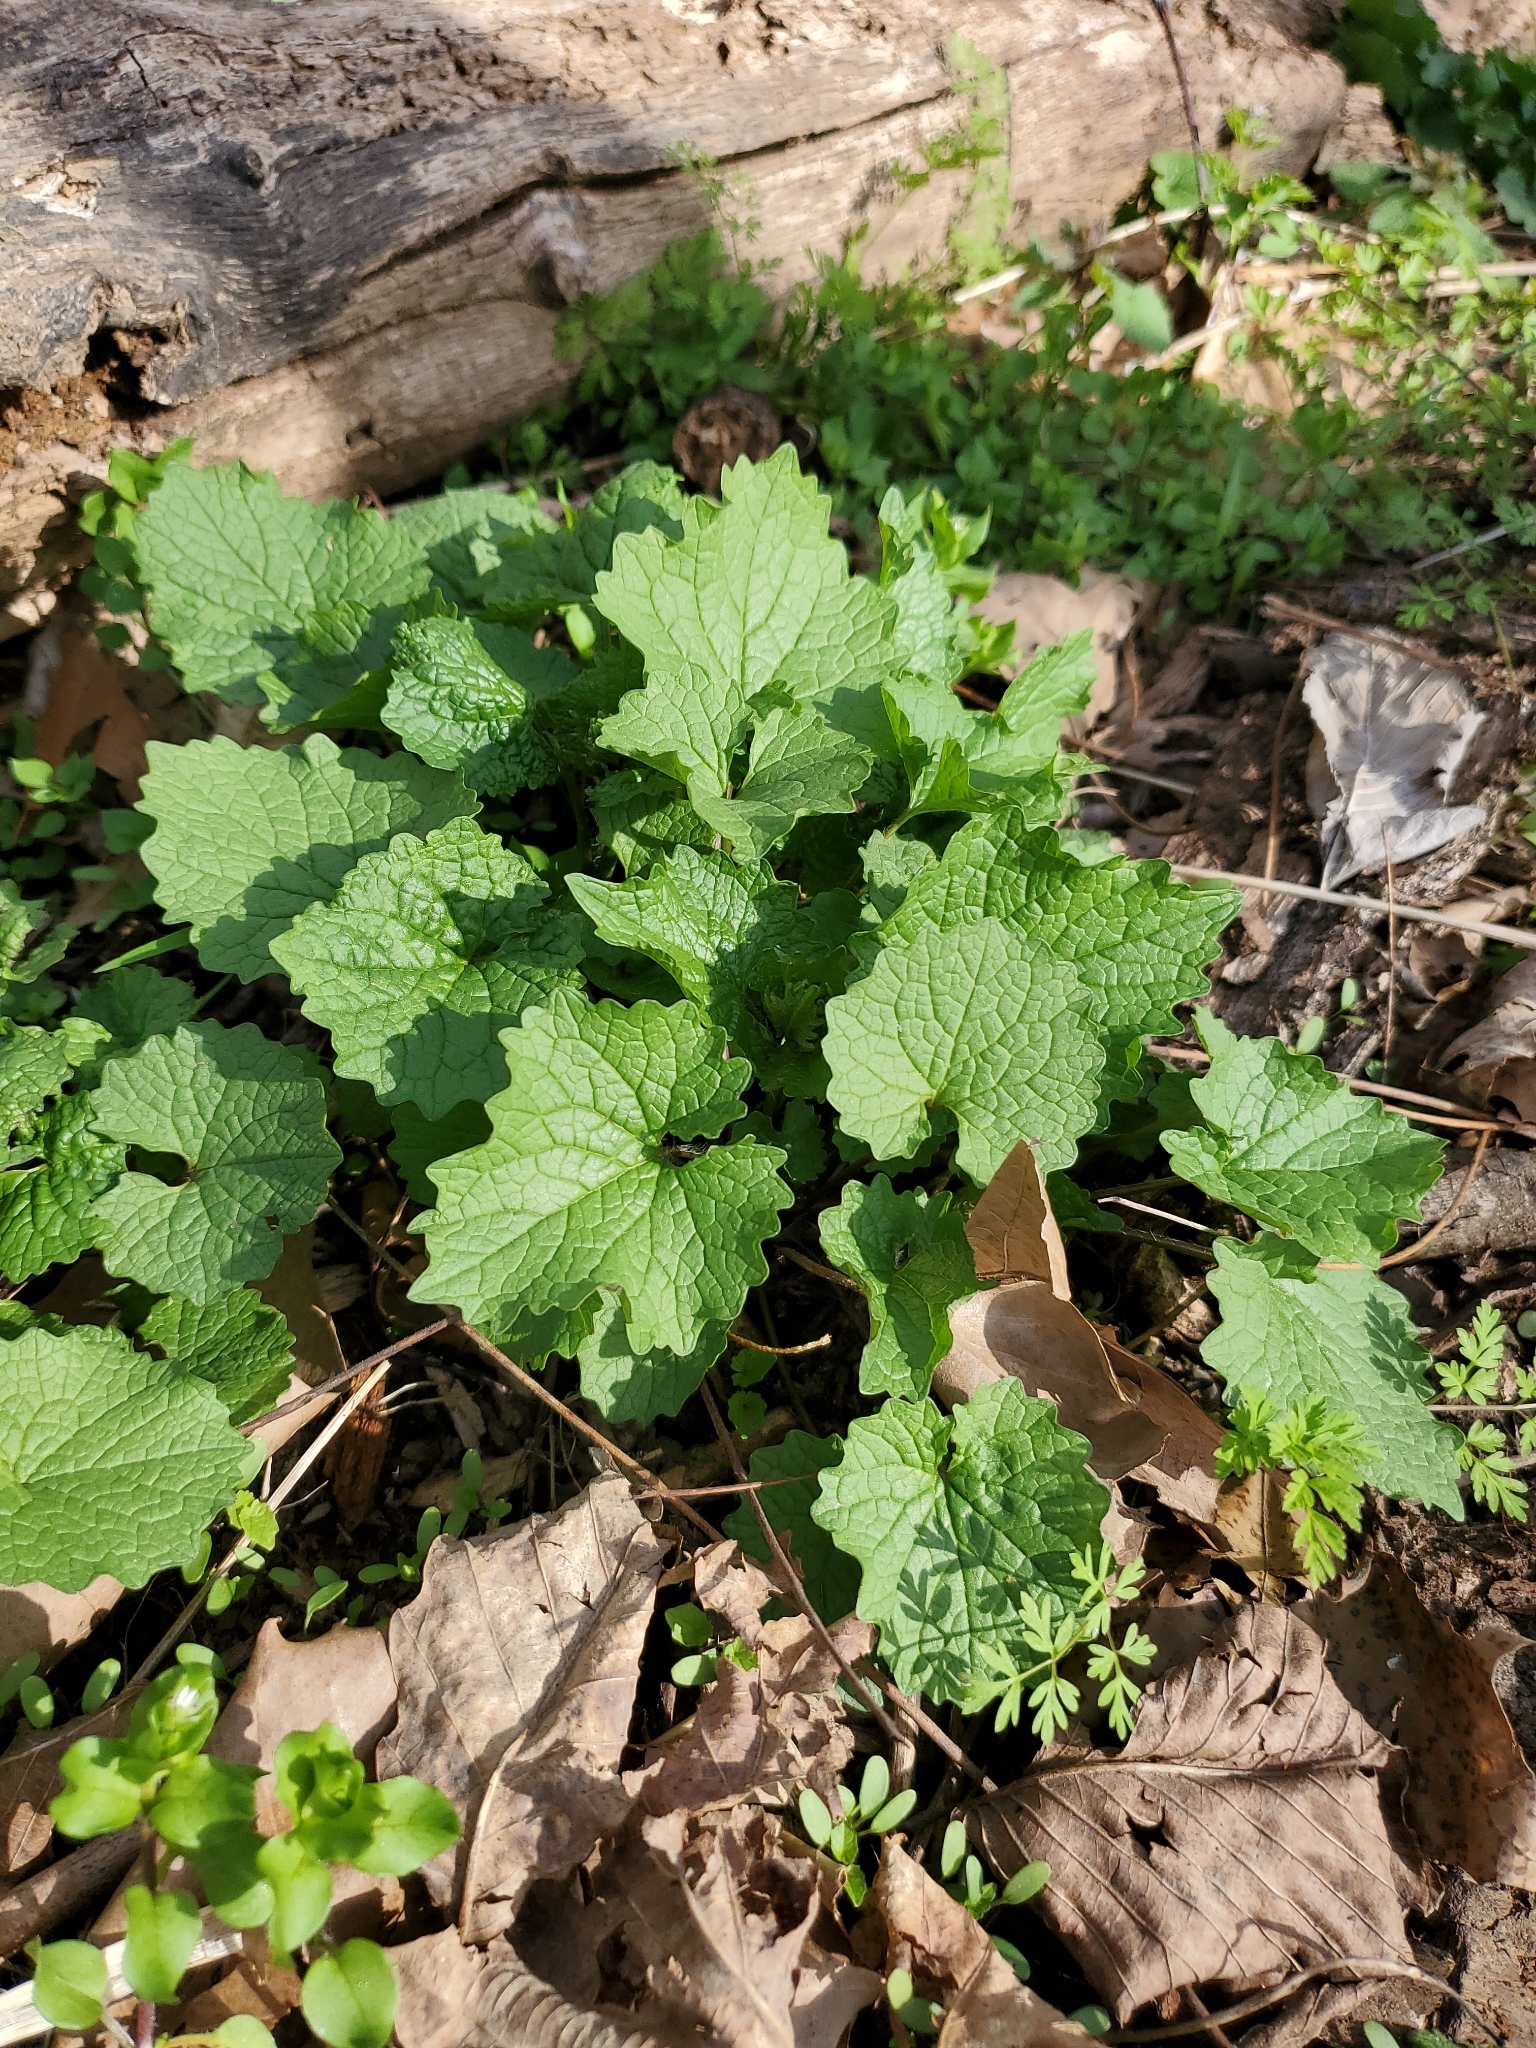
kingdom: Plantae
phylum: Tracheophyta
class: Magnoliopsida
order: Brassicales
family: Brassicaceae
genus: Alliaria
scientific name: Alliaria petiolata
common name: Garlic mustard
